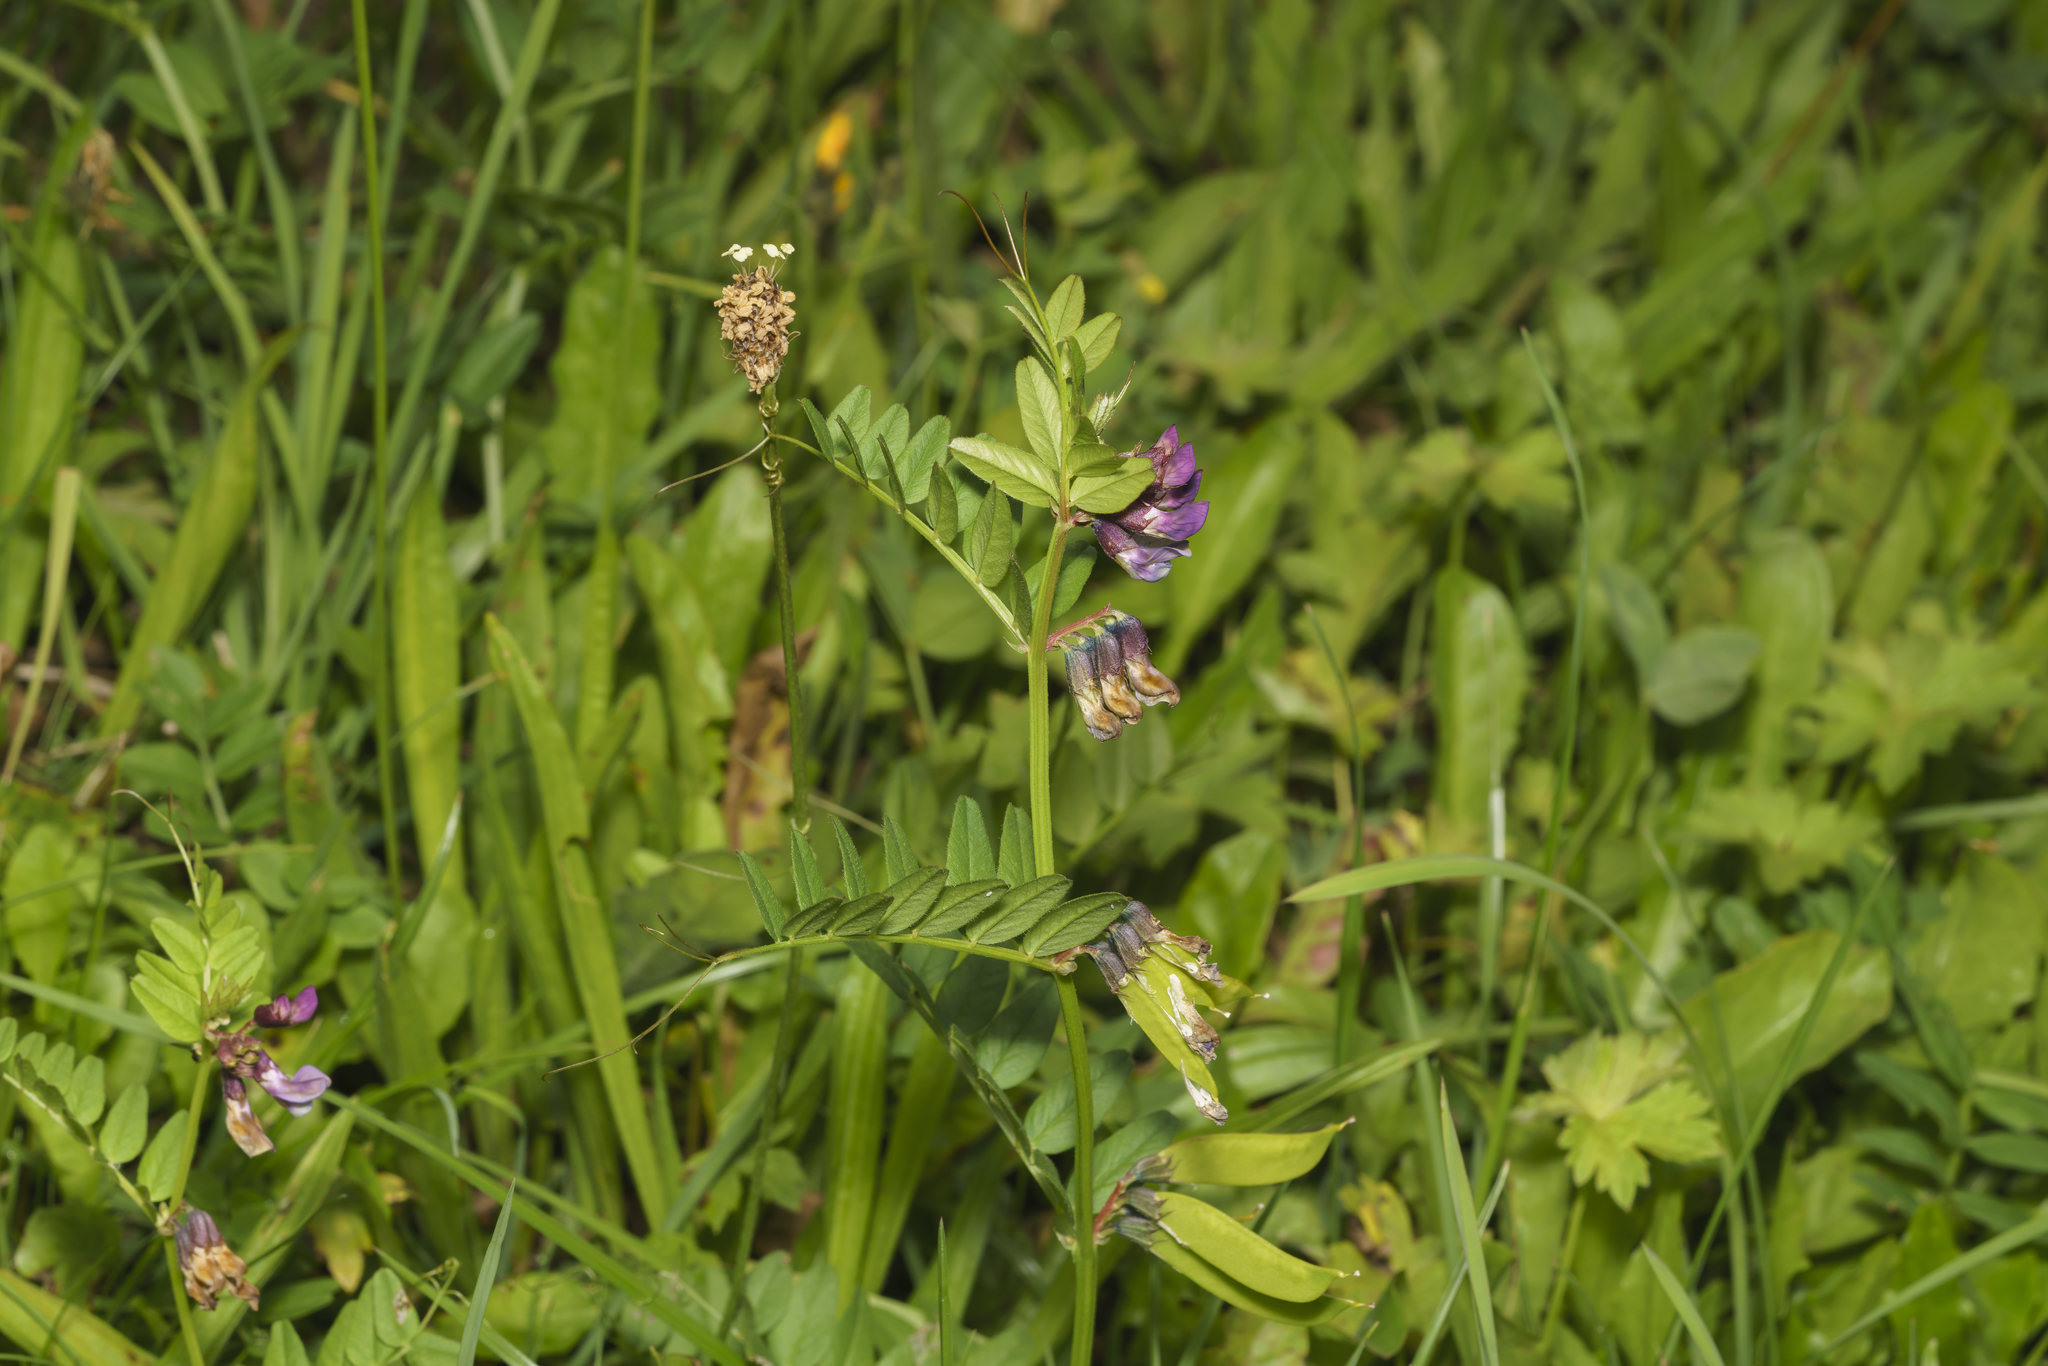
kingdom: Plantae
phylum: Tracheophyta
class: Magnoliopsida
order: Fabales
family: Fabaceae
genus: Vicia
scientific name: Vicia sepium
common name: Bush vetch
